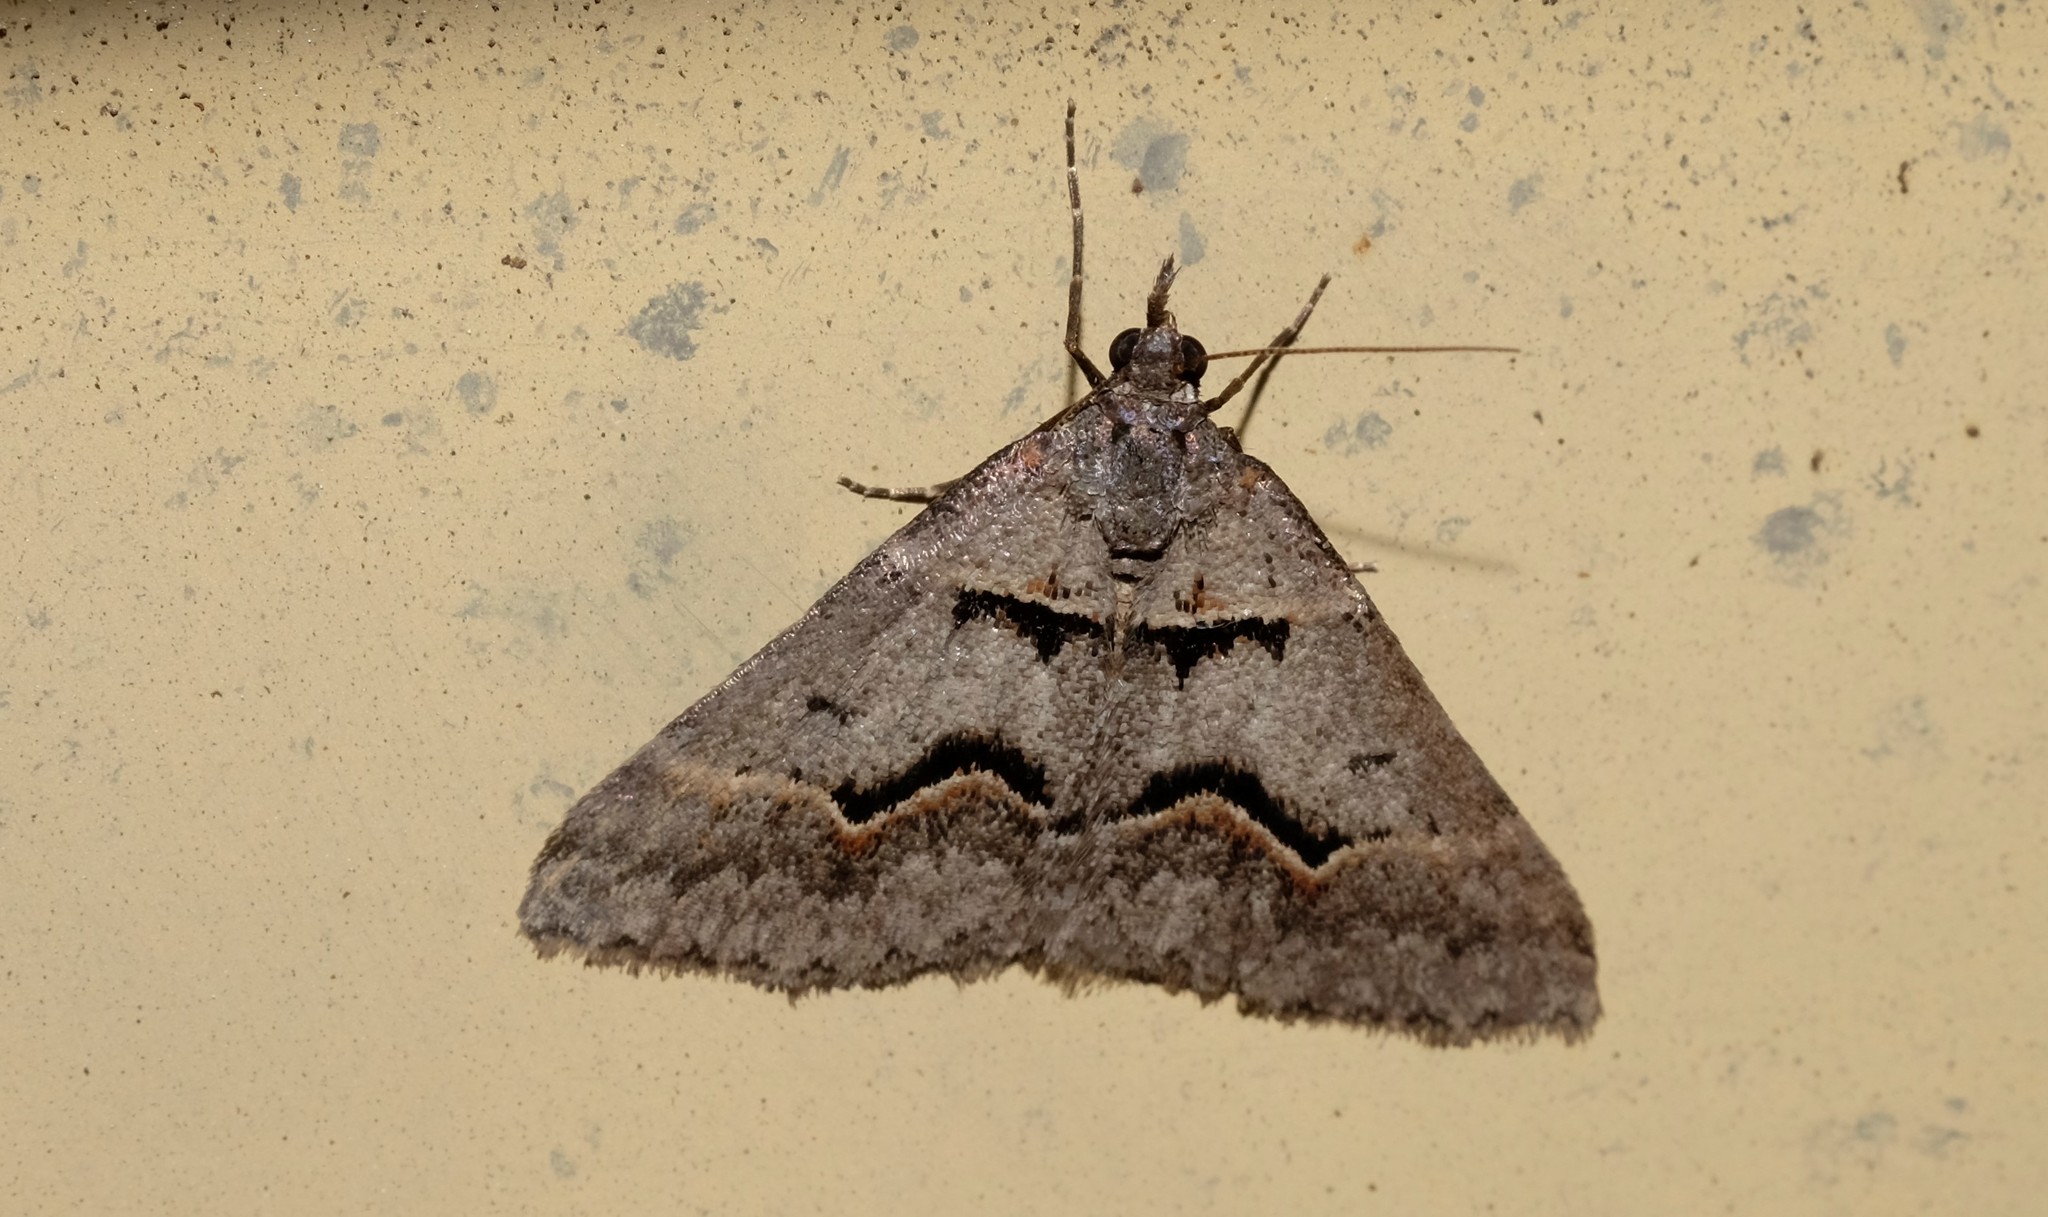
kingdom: Animalia
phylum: Arthropoda
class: Insecta
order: Lepidoptera
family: Geometridae
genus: Dichromodes
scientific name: Dichromodes atrosignata
